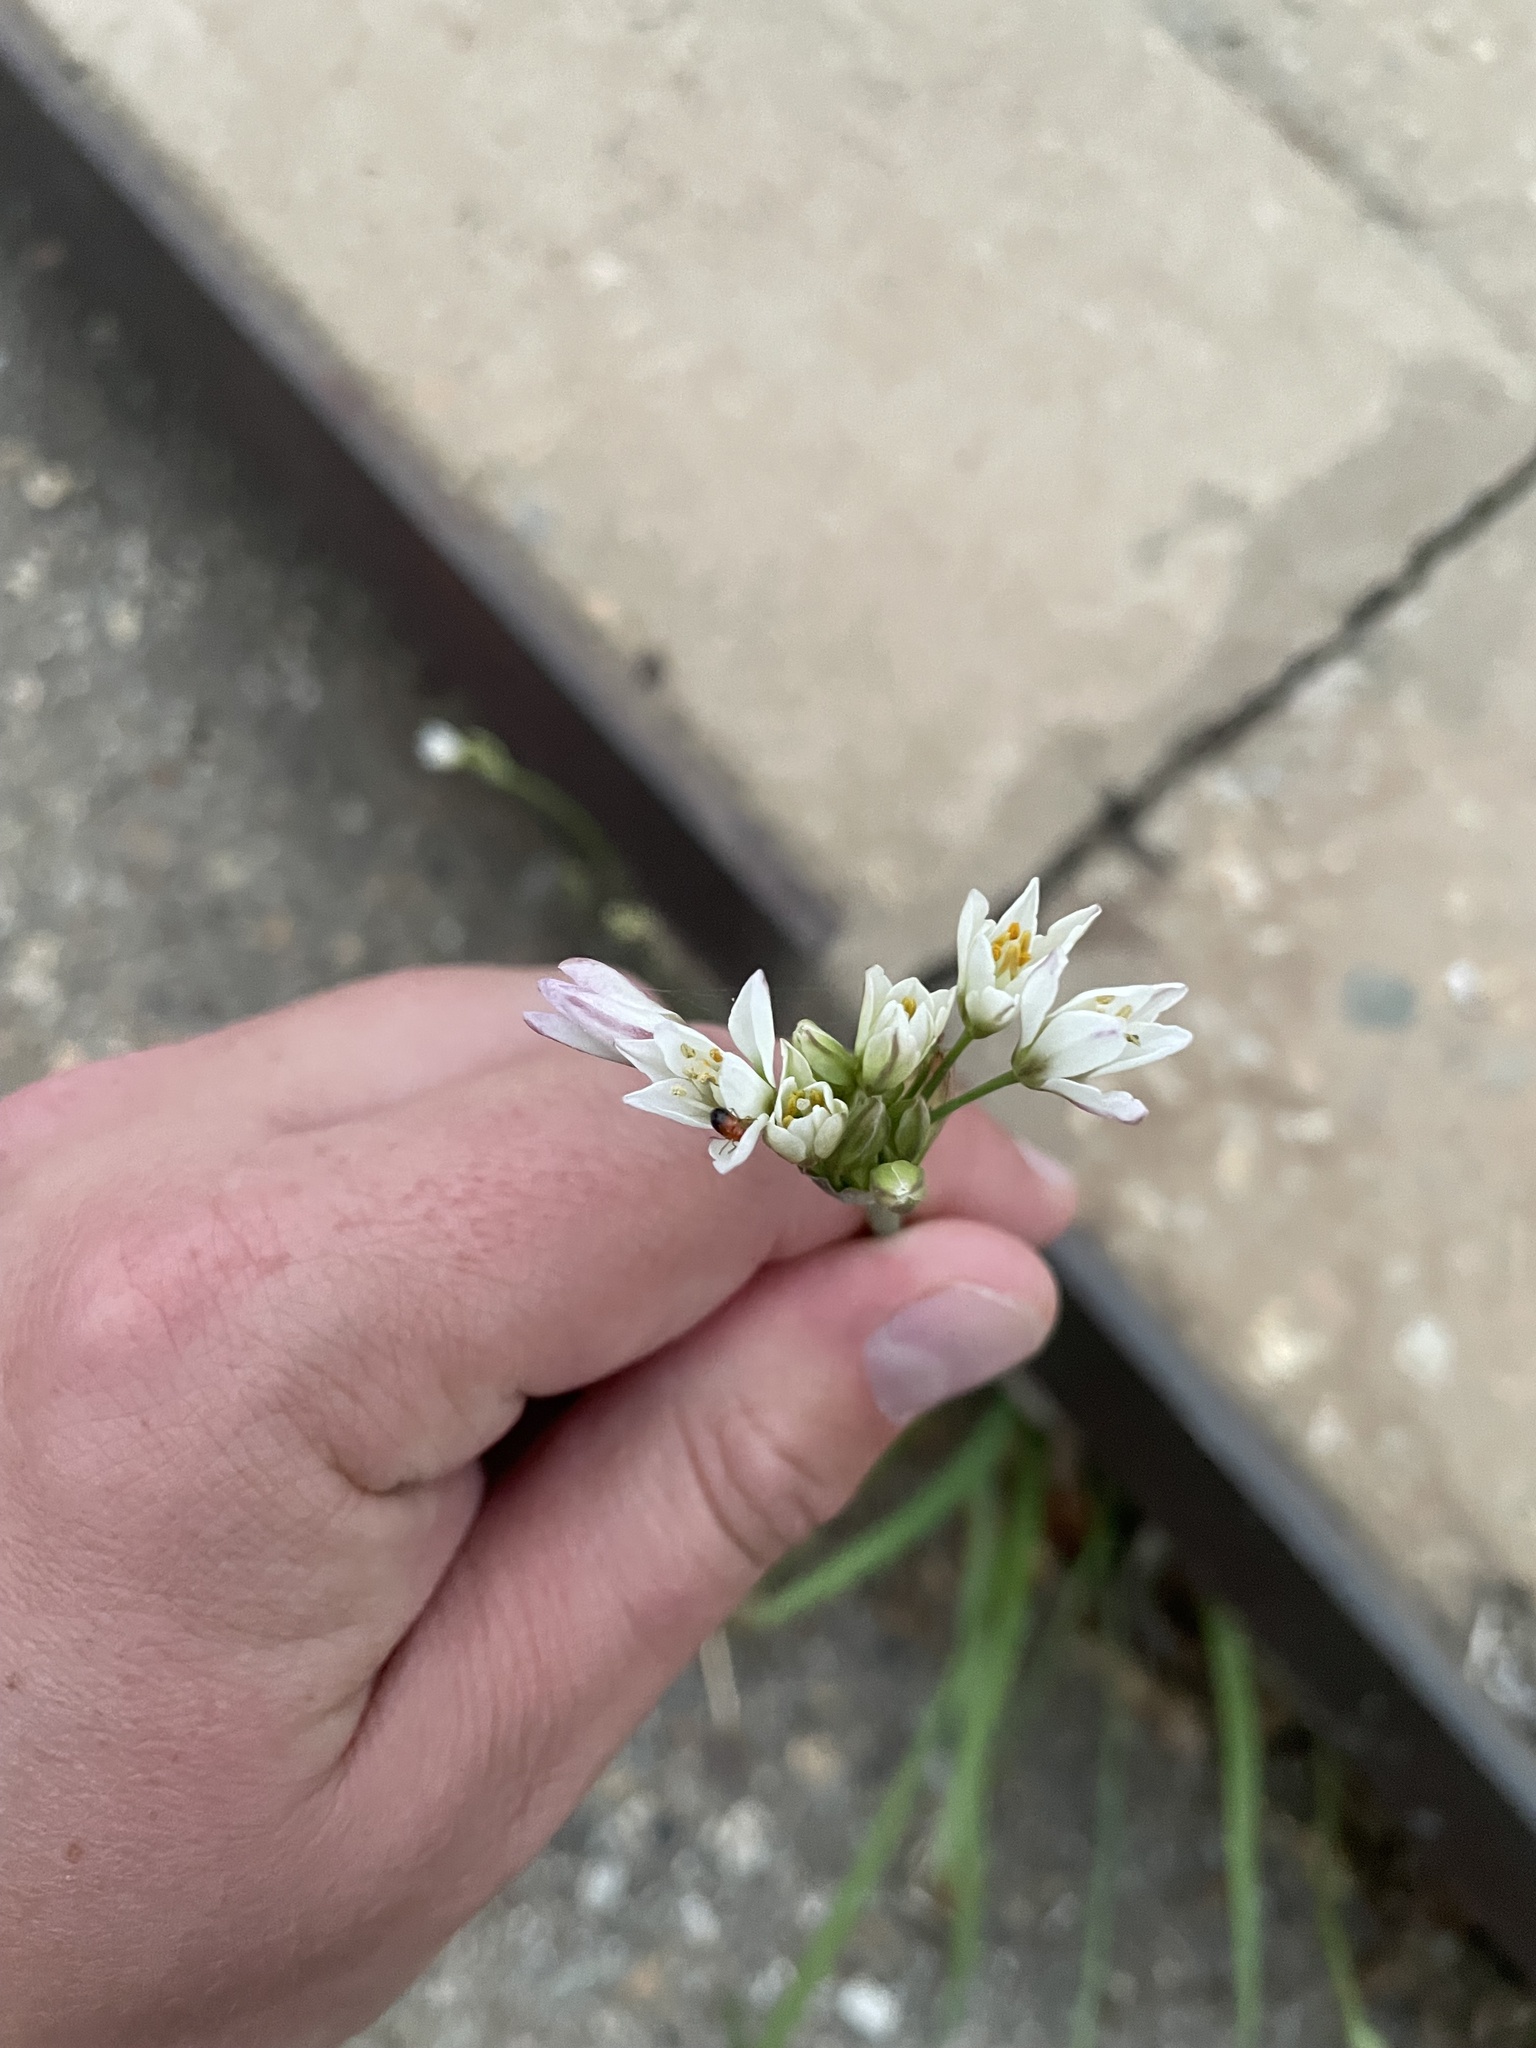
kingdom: Plantae
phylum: Tracheophyta
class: Liliopsida
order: Asparagales
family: Amaryllidaceae
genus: Nothoscordum
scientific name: Nothoscordum gracile
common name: Slender false garlic
